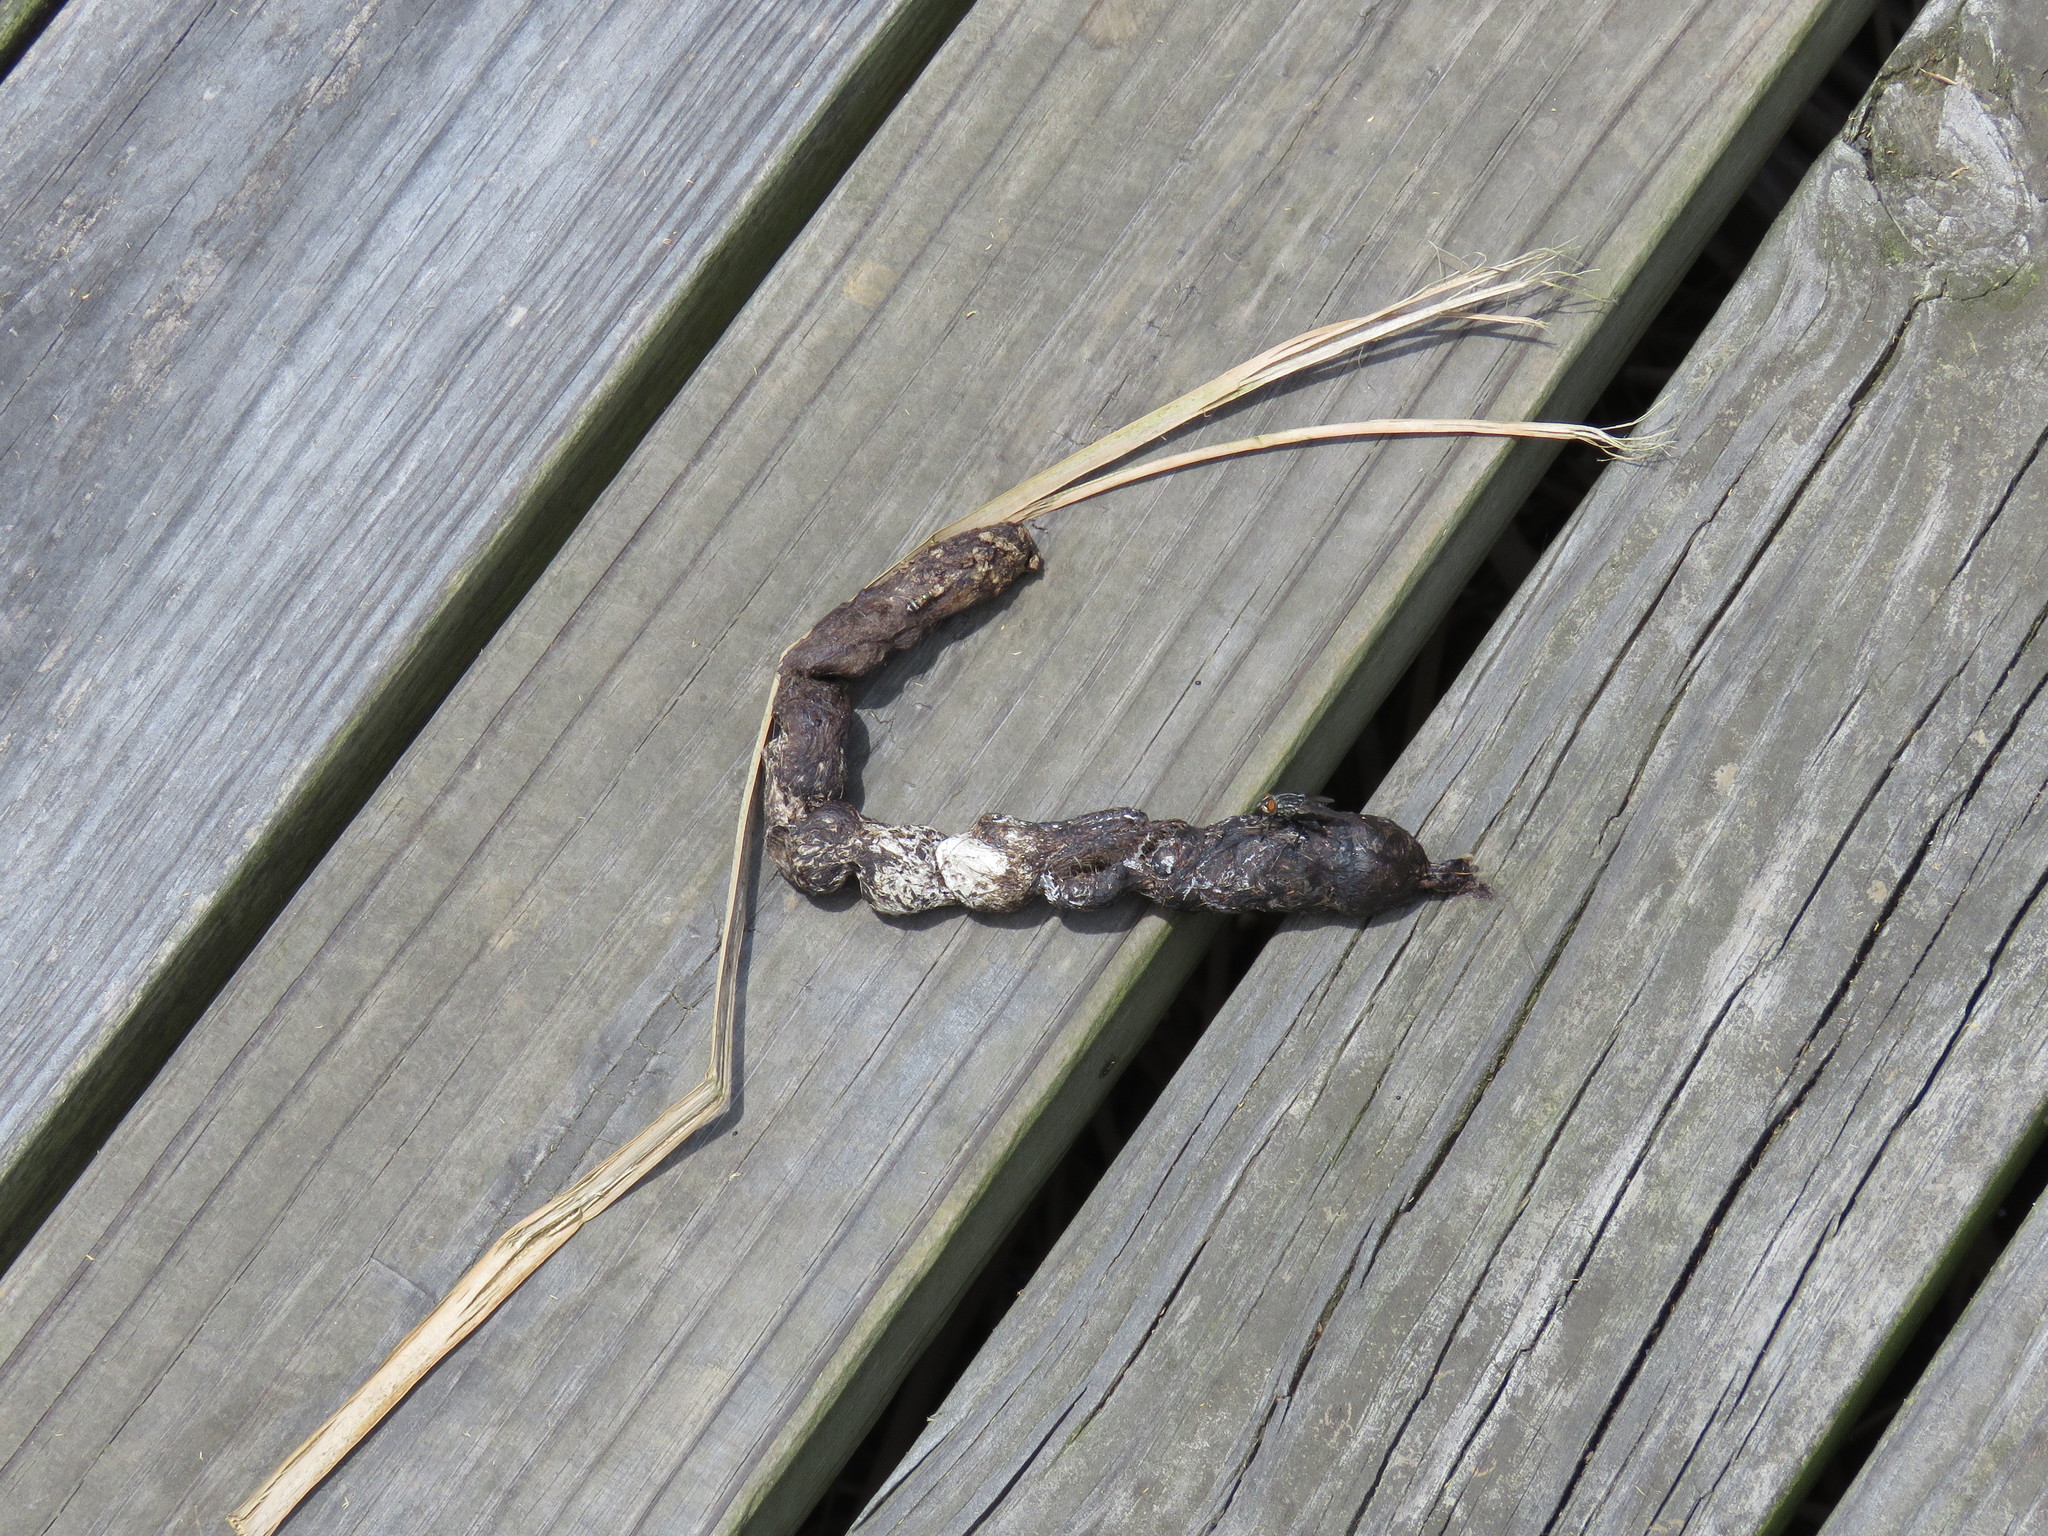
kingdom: Animalia
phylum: Chordata
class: Mammalia
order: Carnivora
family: Canidae
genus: Canis
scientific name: Canis latrans
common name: Coyote
